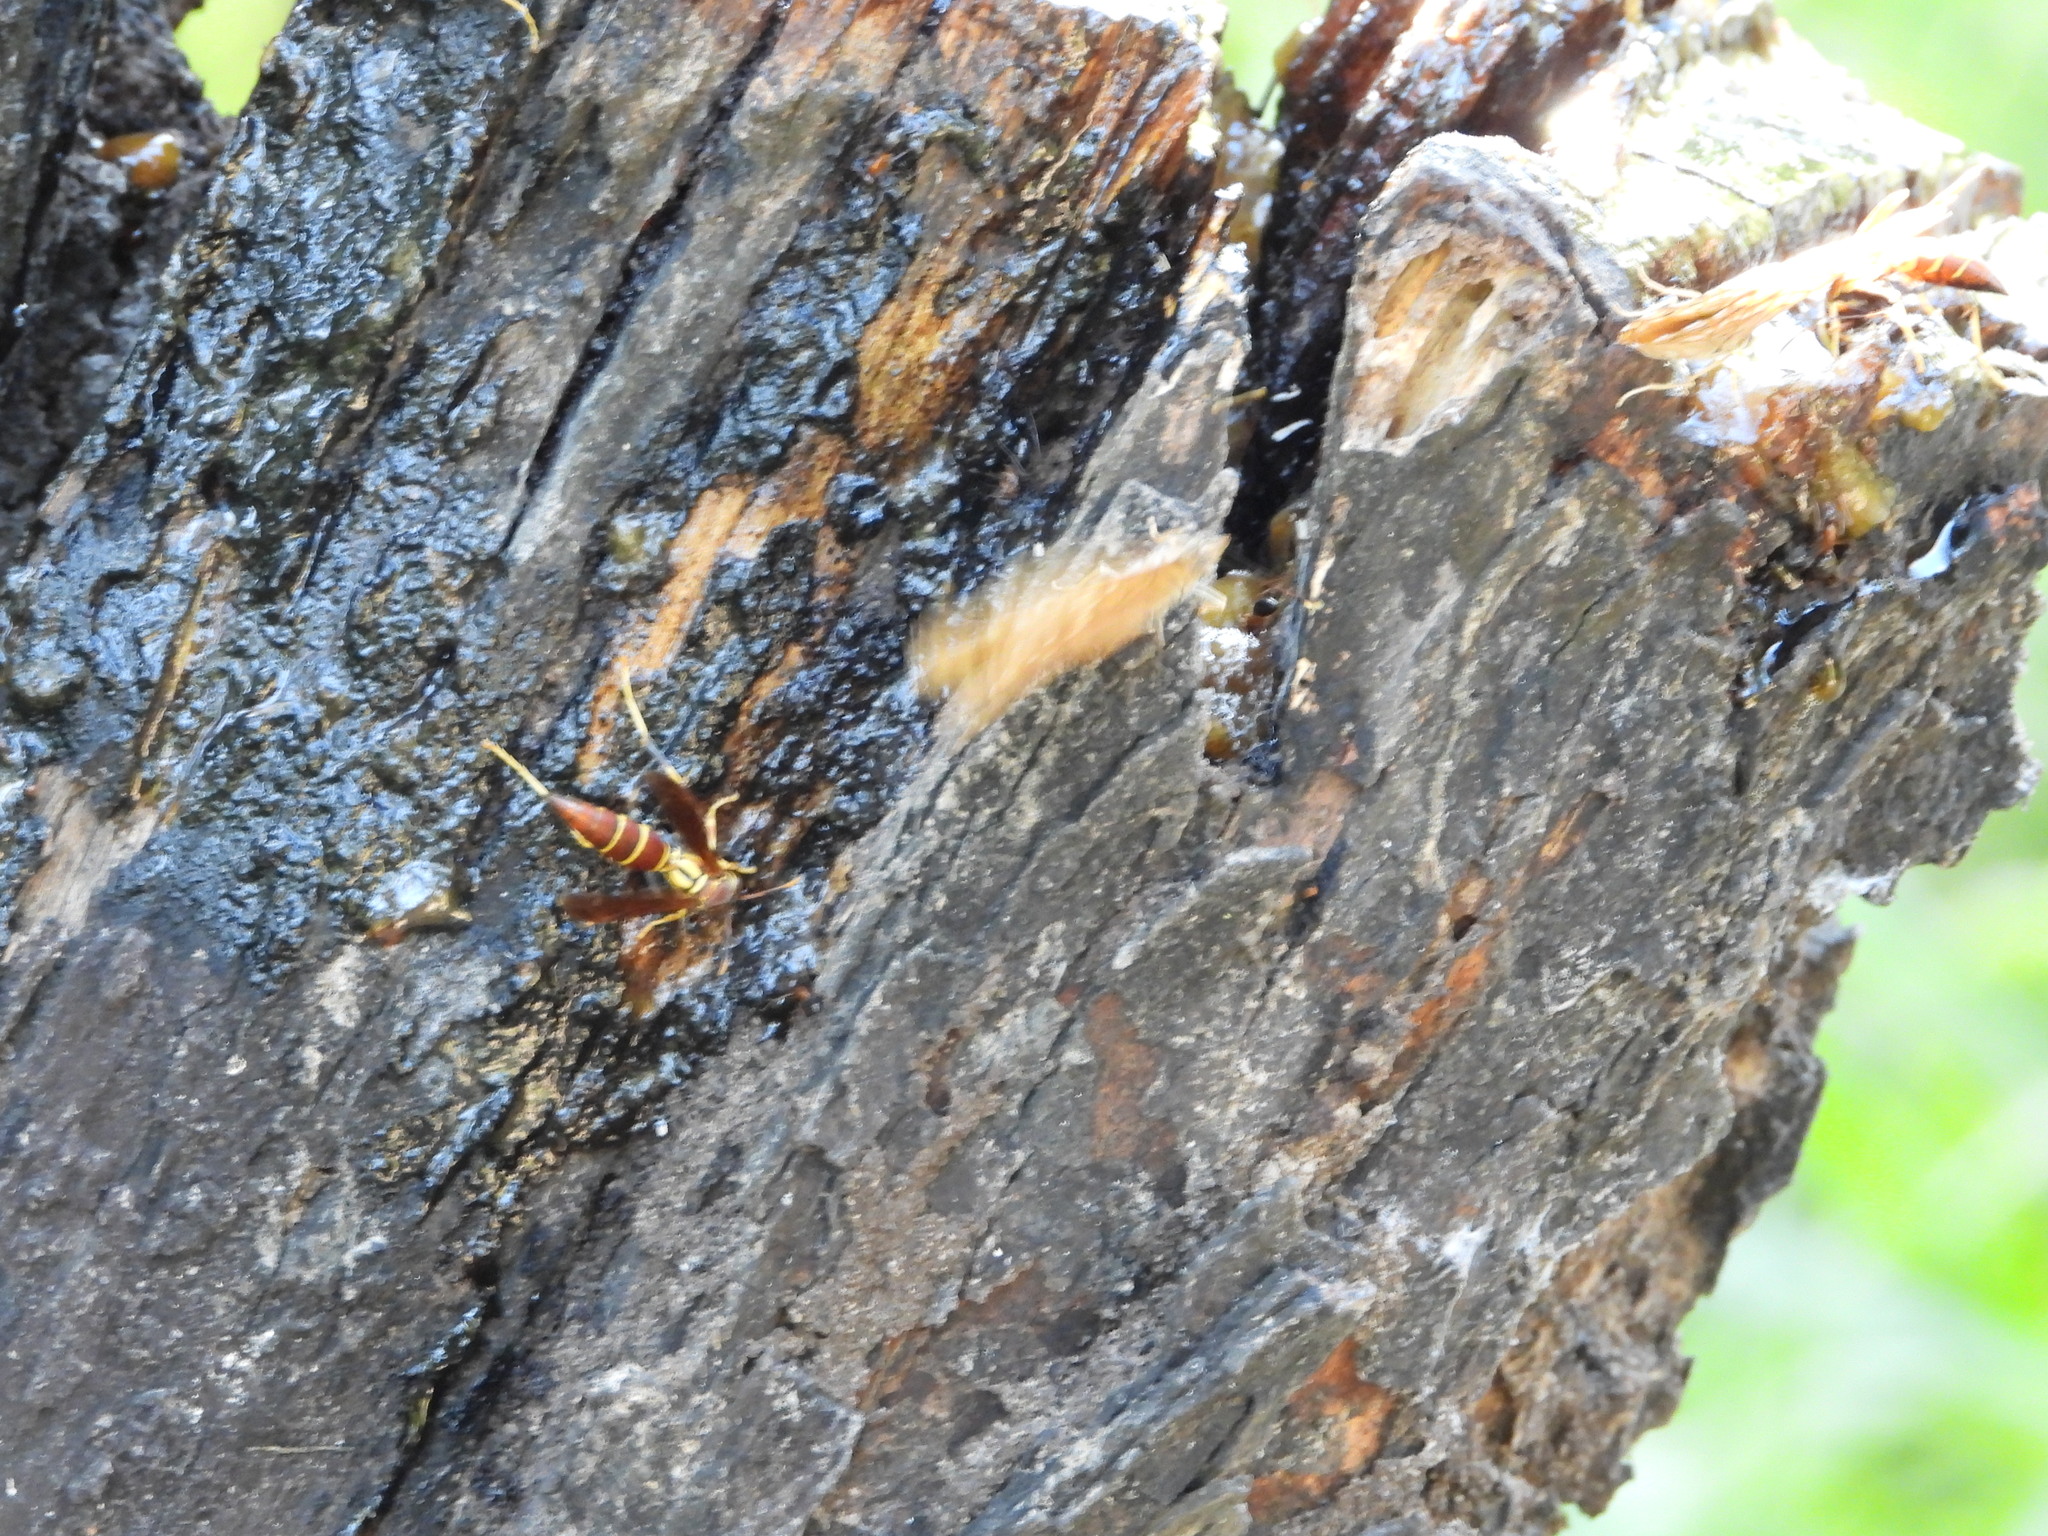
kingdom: Animalia
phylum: Arthropoda
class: Insecta
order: Hymenoptera
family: Eumenidae
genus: Polistes
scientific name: Polistes instabilis
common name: Unstable paper wasp
